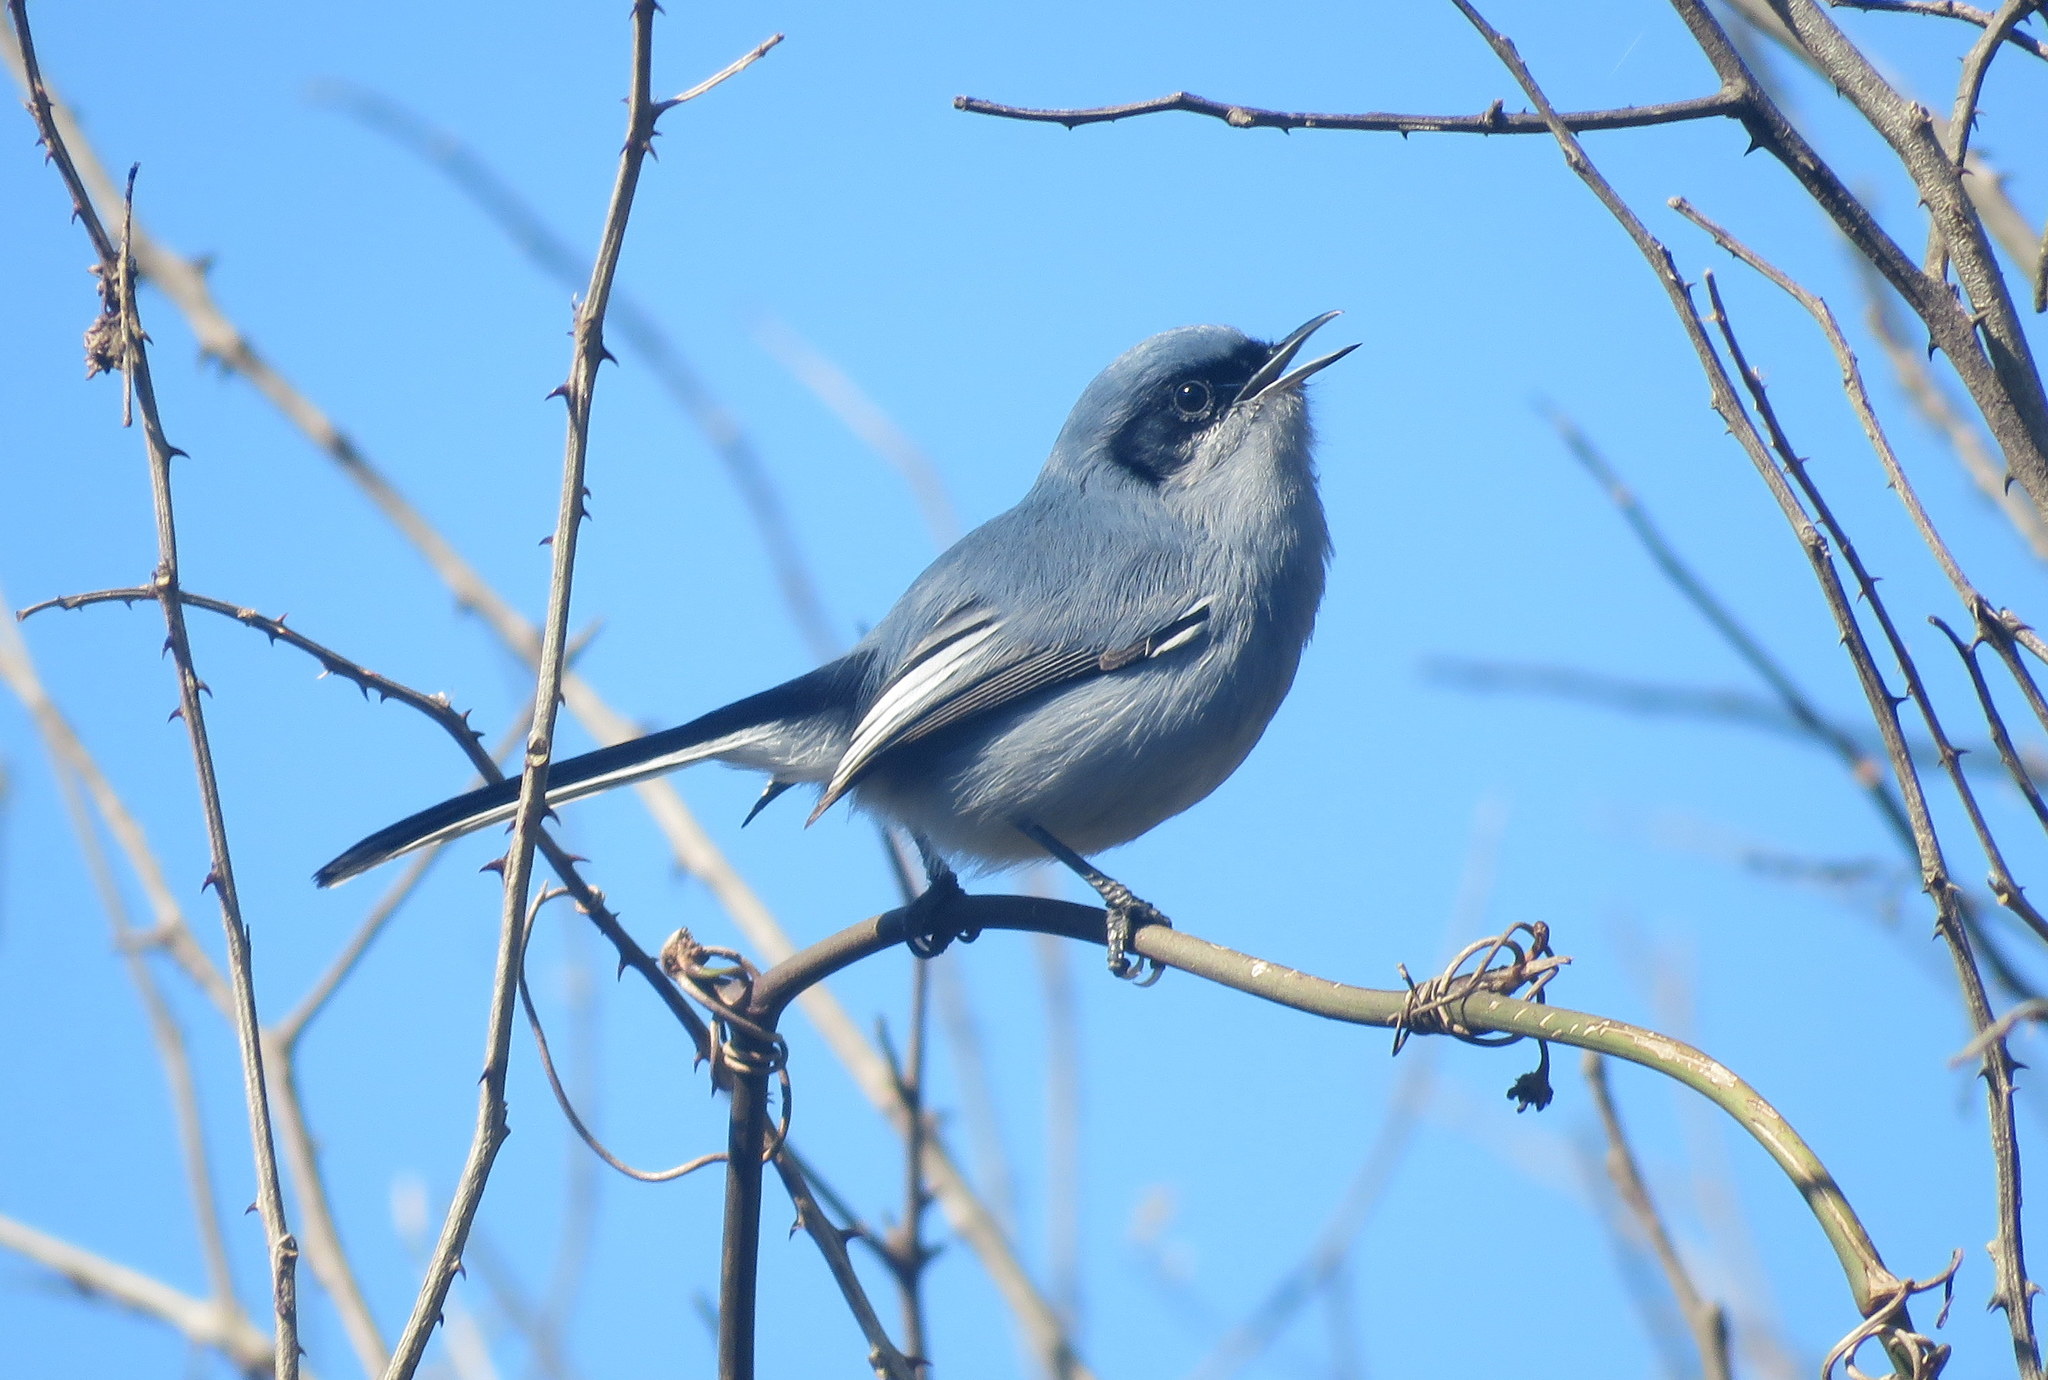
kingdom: Animalia
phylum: Chordata
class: Aves
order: Passeriformes
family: Polioptilidae
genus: Polioptila
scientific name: Polioptila dumicola
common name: Masked gnatcatcher
